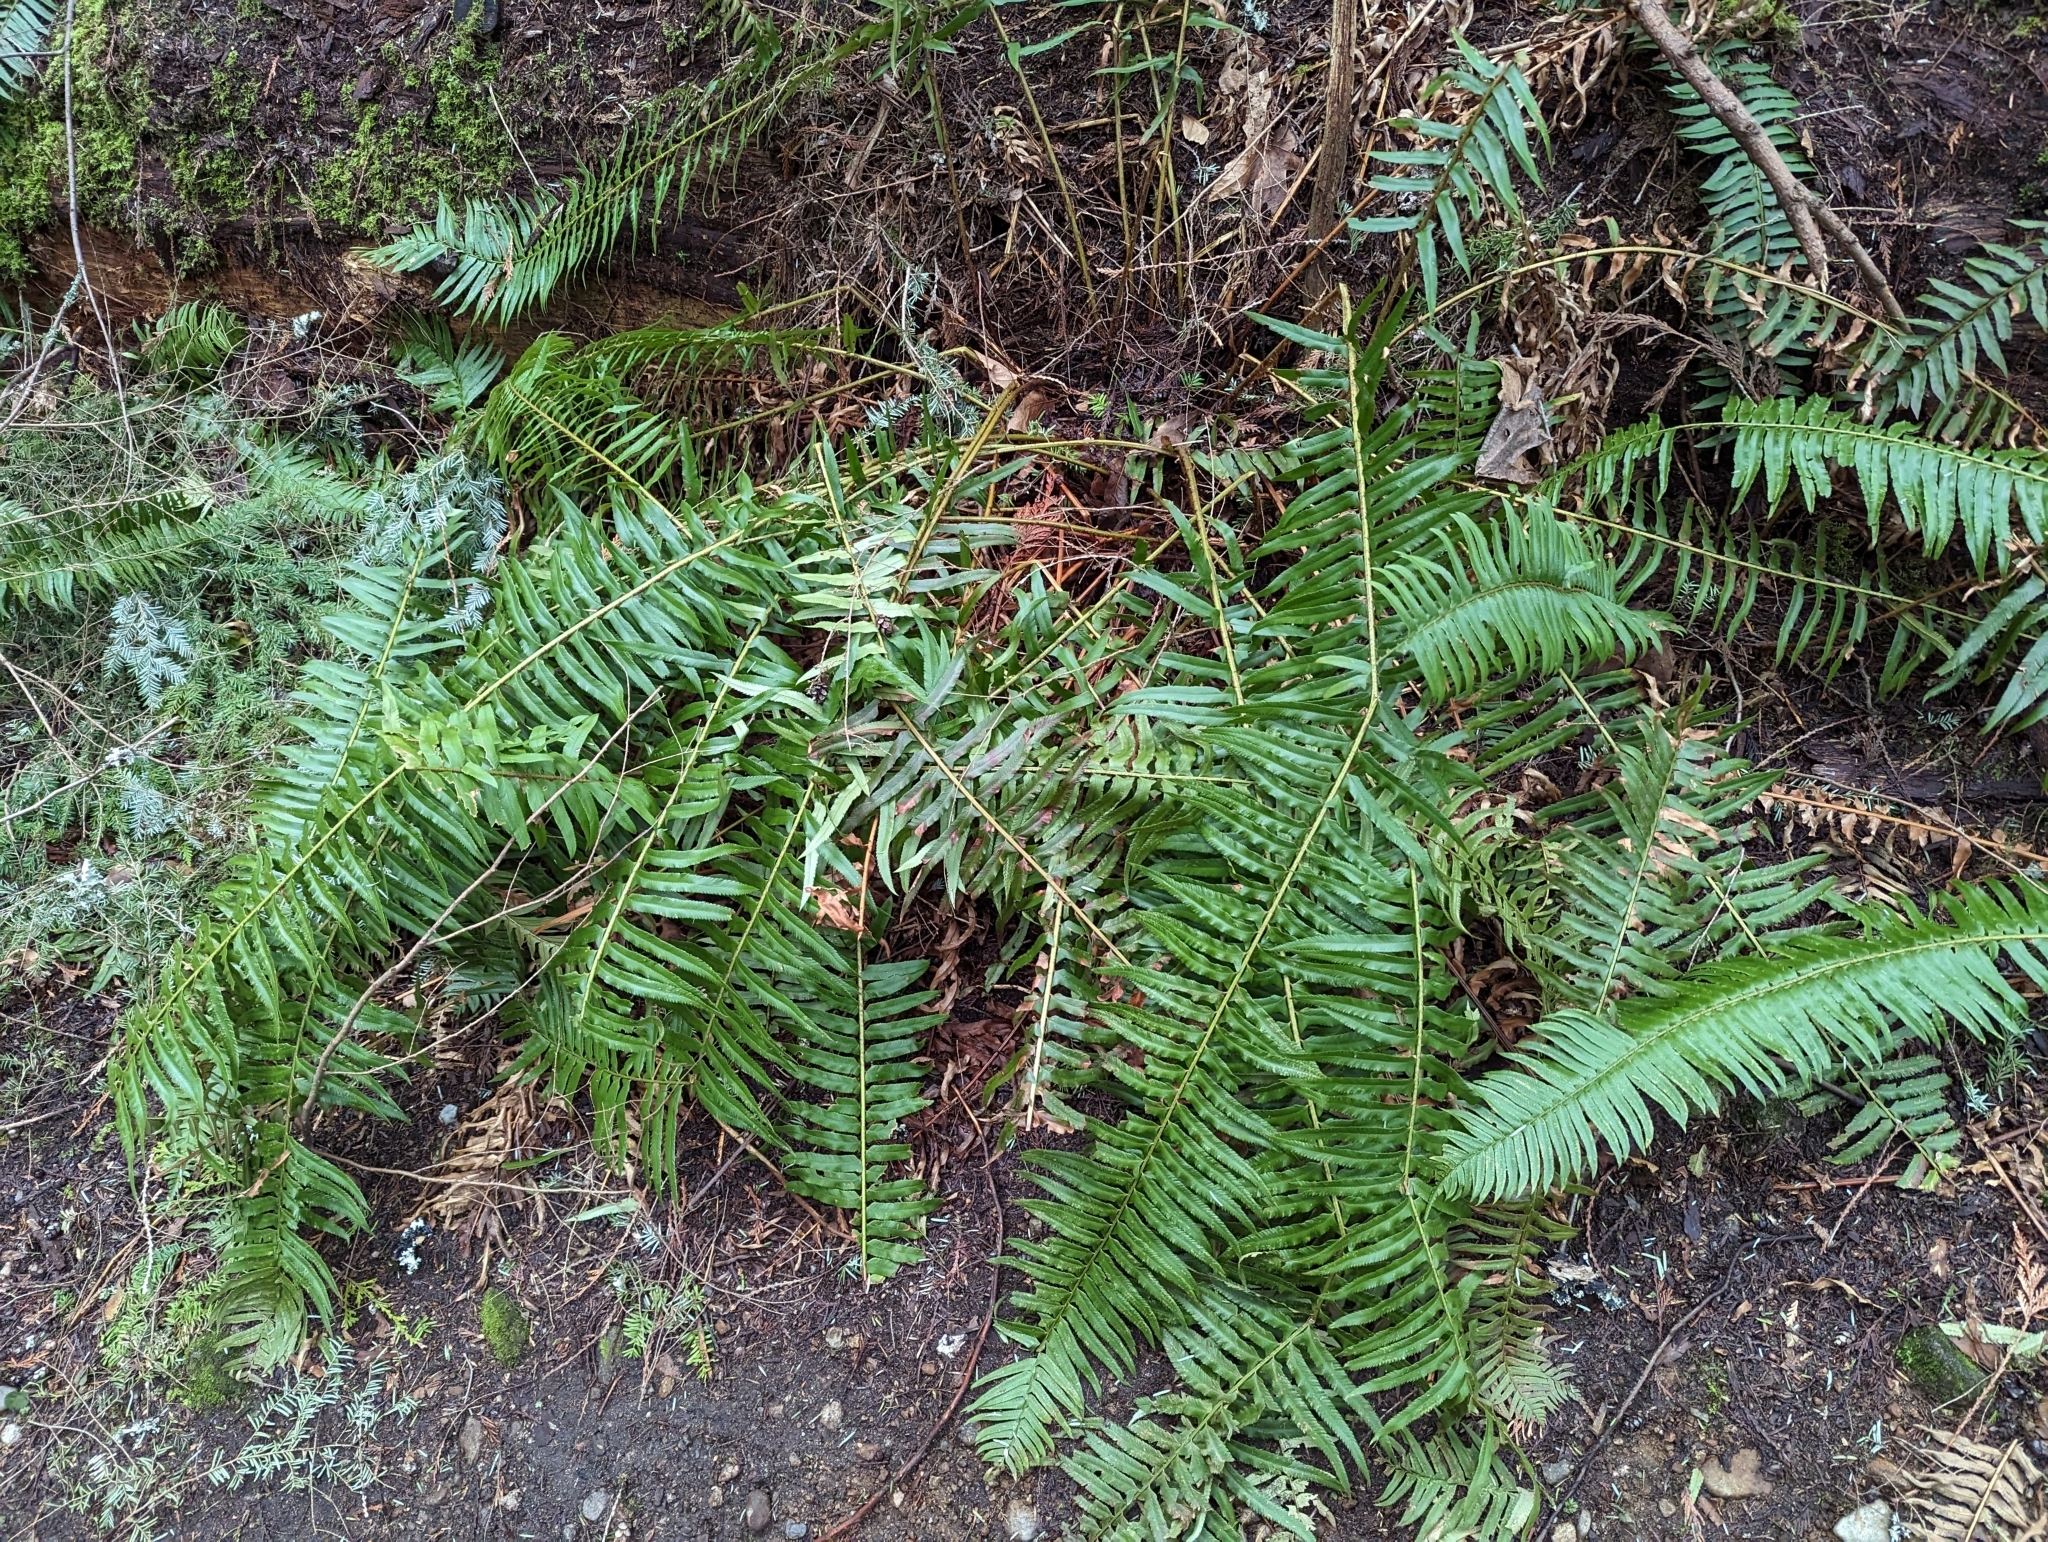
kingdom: Plantae
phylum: Tracheophyta
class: Polypodiopsida
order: Polypodiales
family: Dryopteridaceae
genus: Polystichum
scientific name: Polystichum munitum
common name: Western sword-fern
